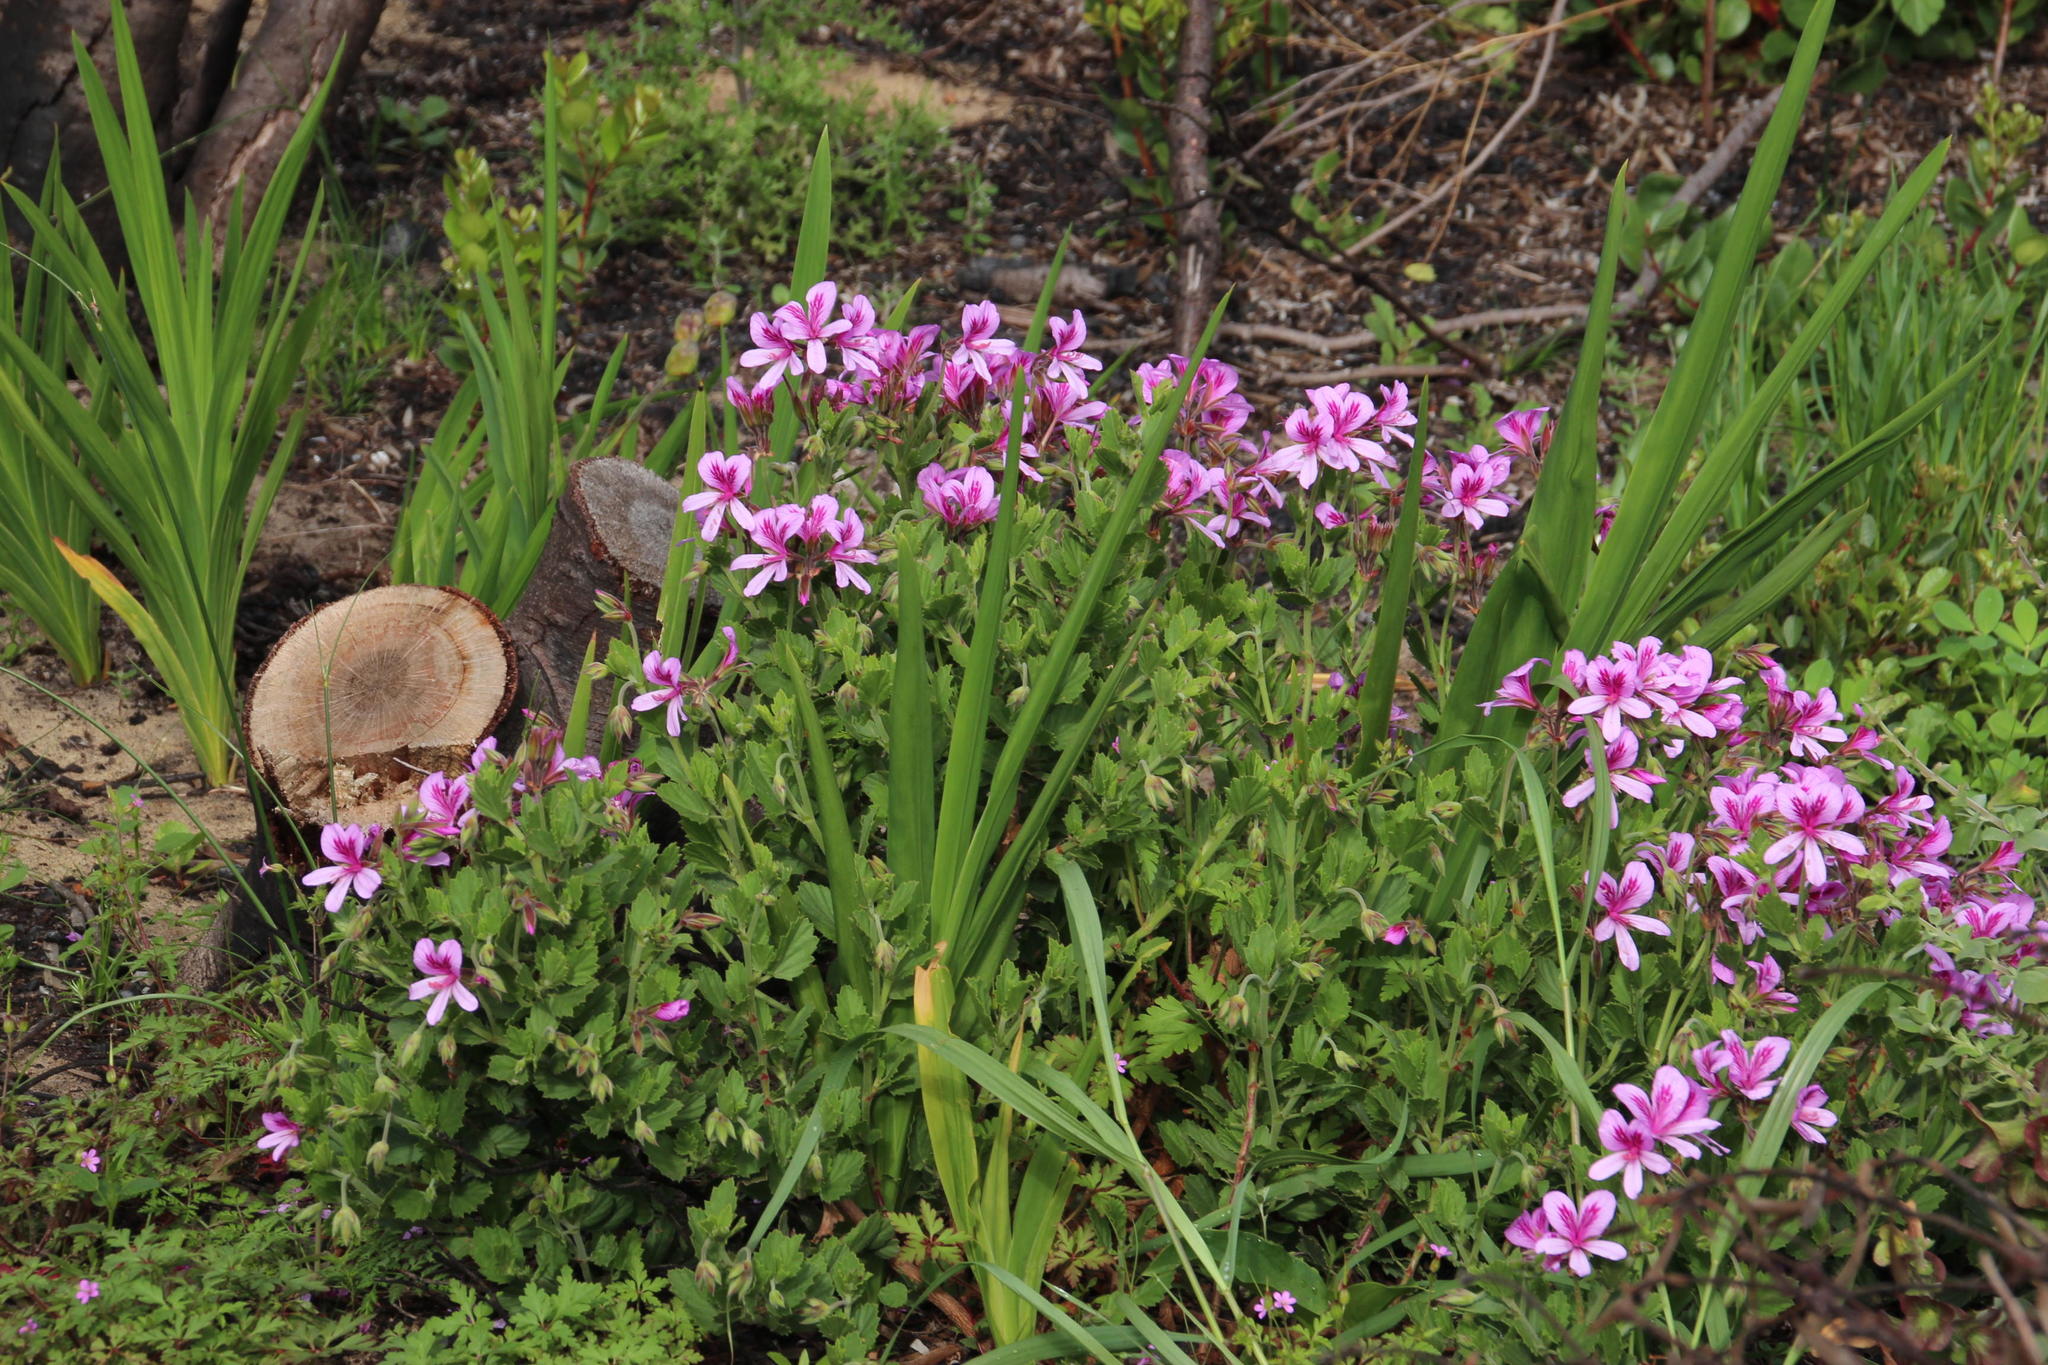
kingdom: Plantae
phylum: Tracheophyta
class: Magnoliopsida
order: Geraniales
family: Geraniaceae
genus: Pelargonium
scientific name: Pelargonium betulinum
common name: Birch-leaf pelargonium
